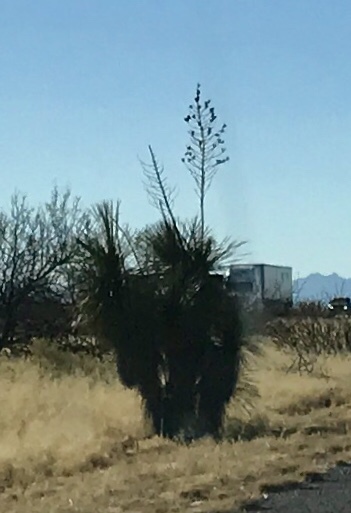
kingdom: Plantae
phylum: Tracheophyta
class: Liliopsida
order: Asparagales
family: Asparagaceae
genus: Yucca
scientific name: Yucca elata
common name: Palmella
